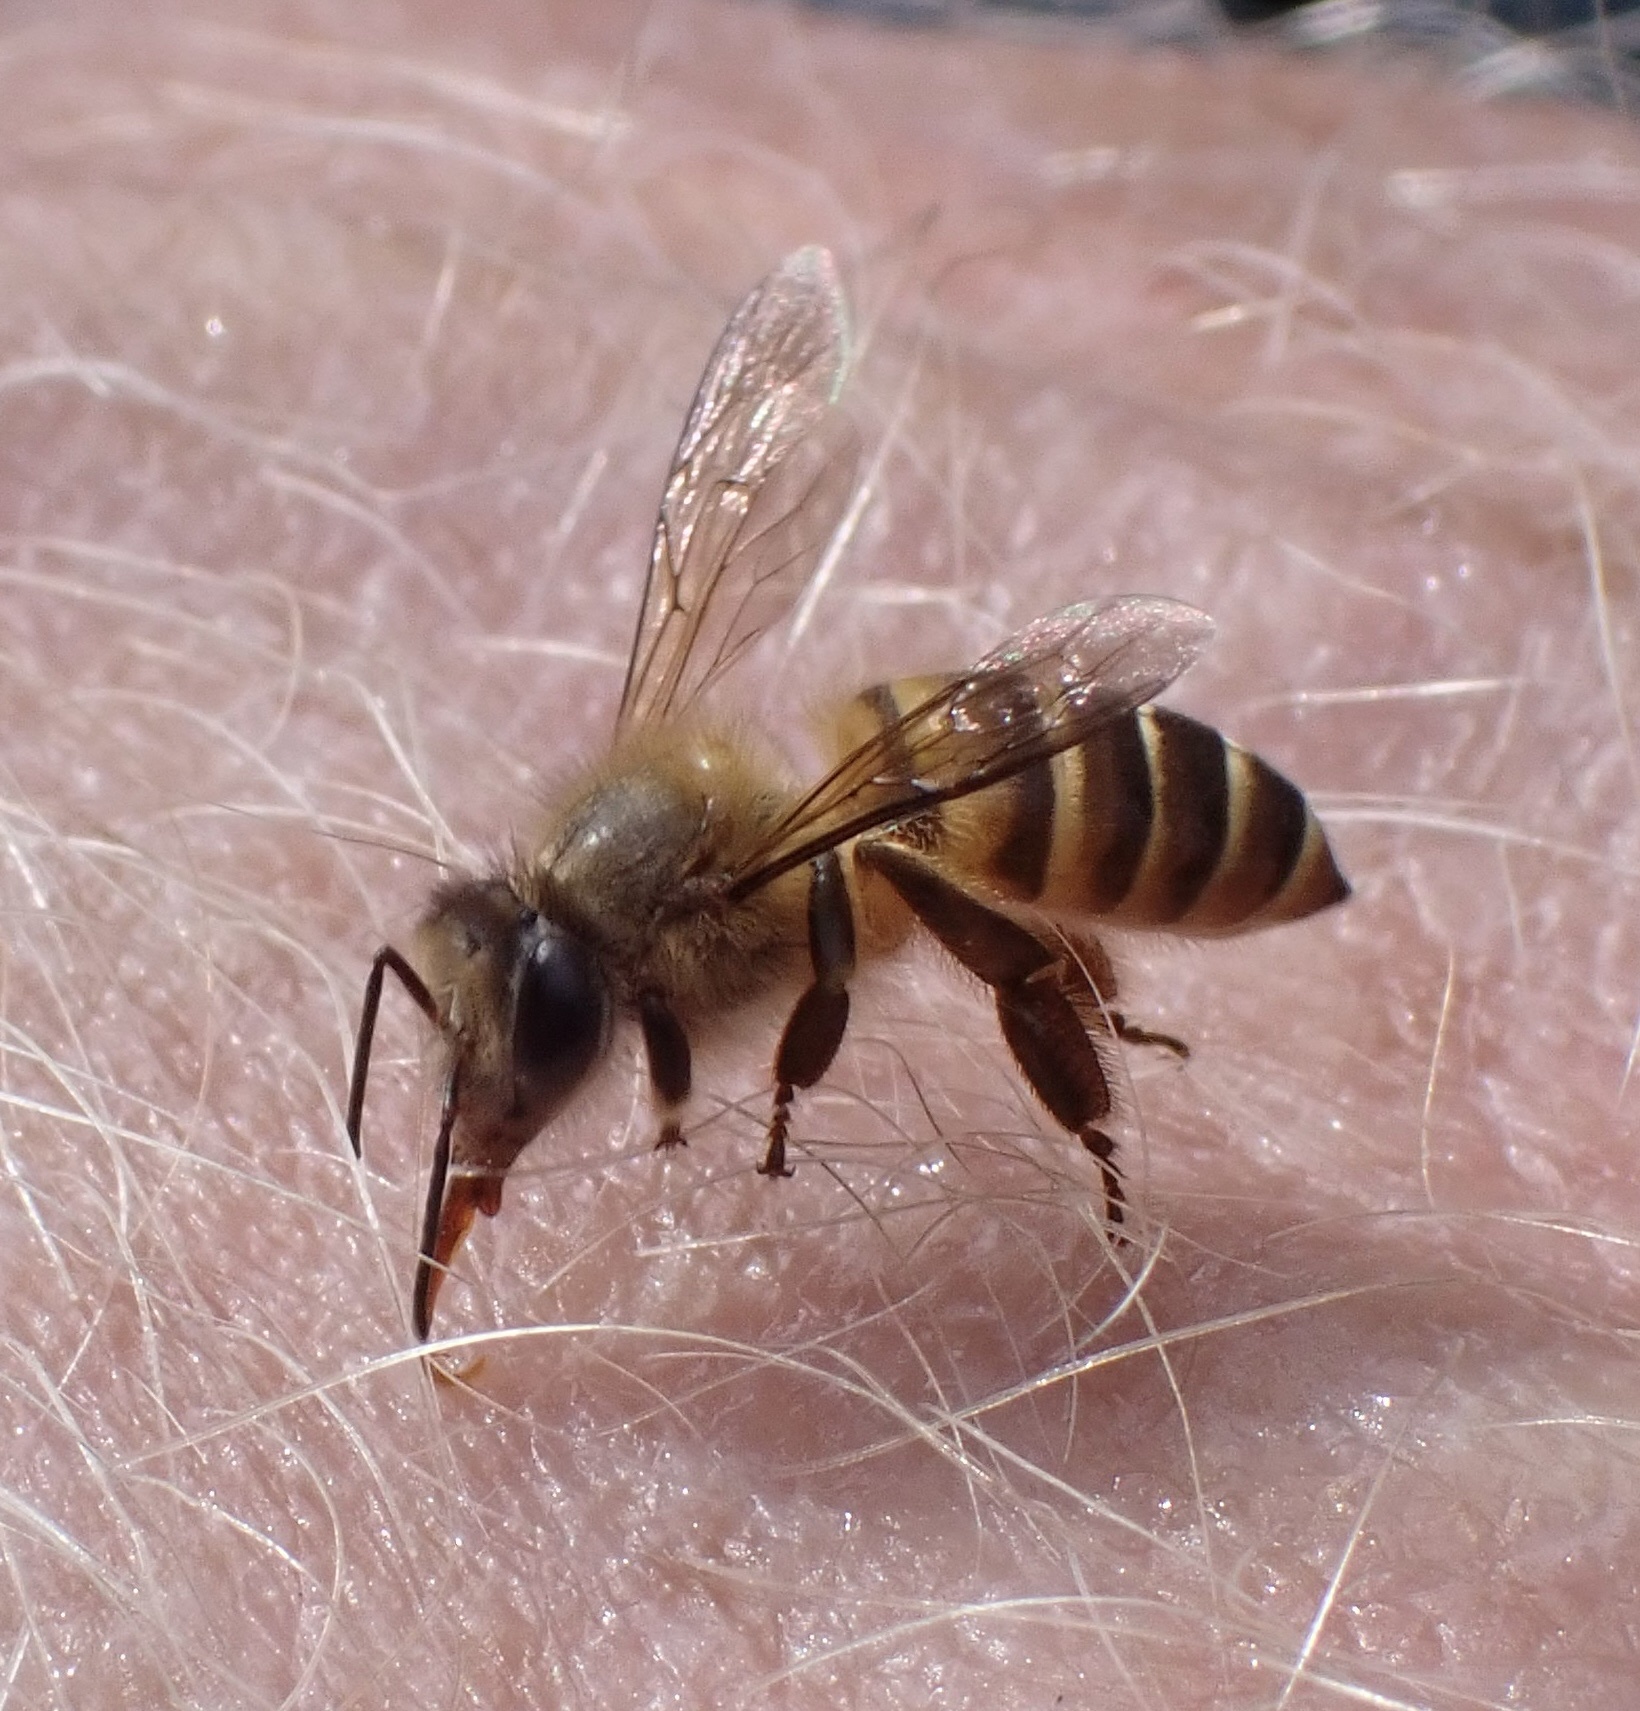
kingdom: Animalia
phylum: Arthropoda
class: Insecta
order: Hymenoptera
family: Apidae
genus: Apis
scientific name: Apis nigrocincta
